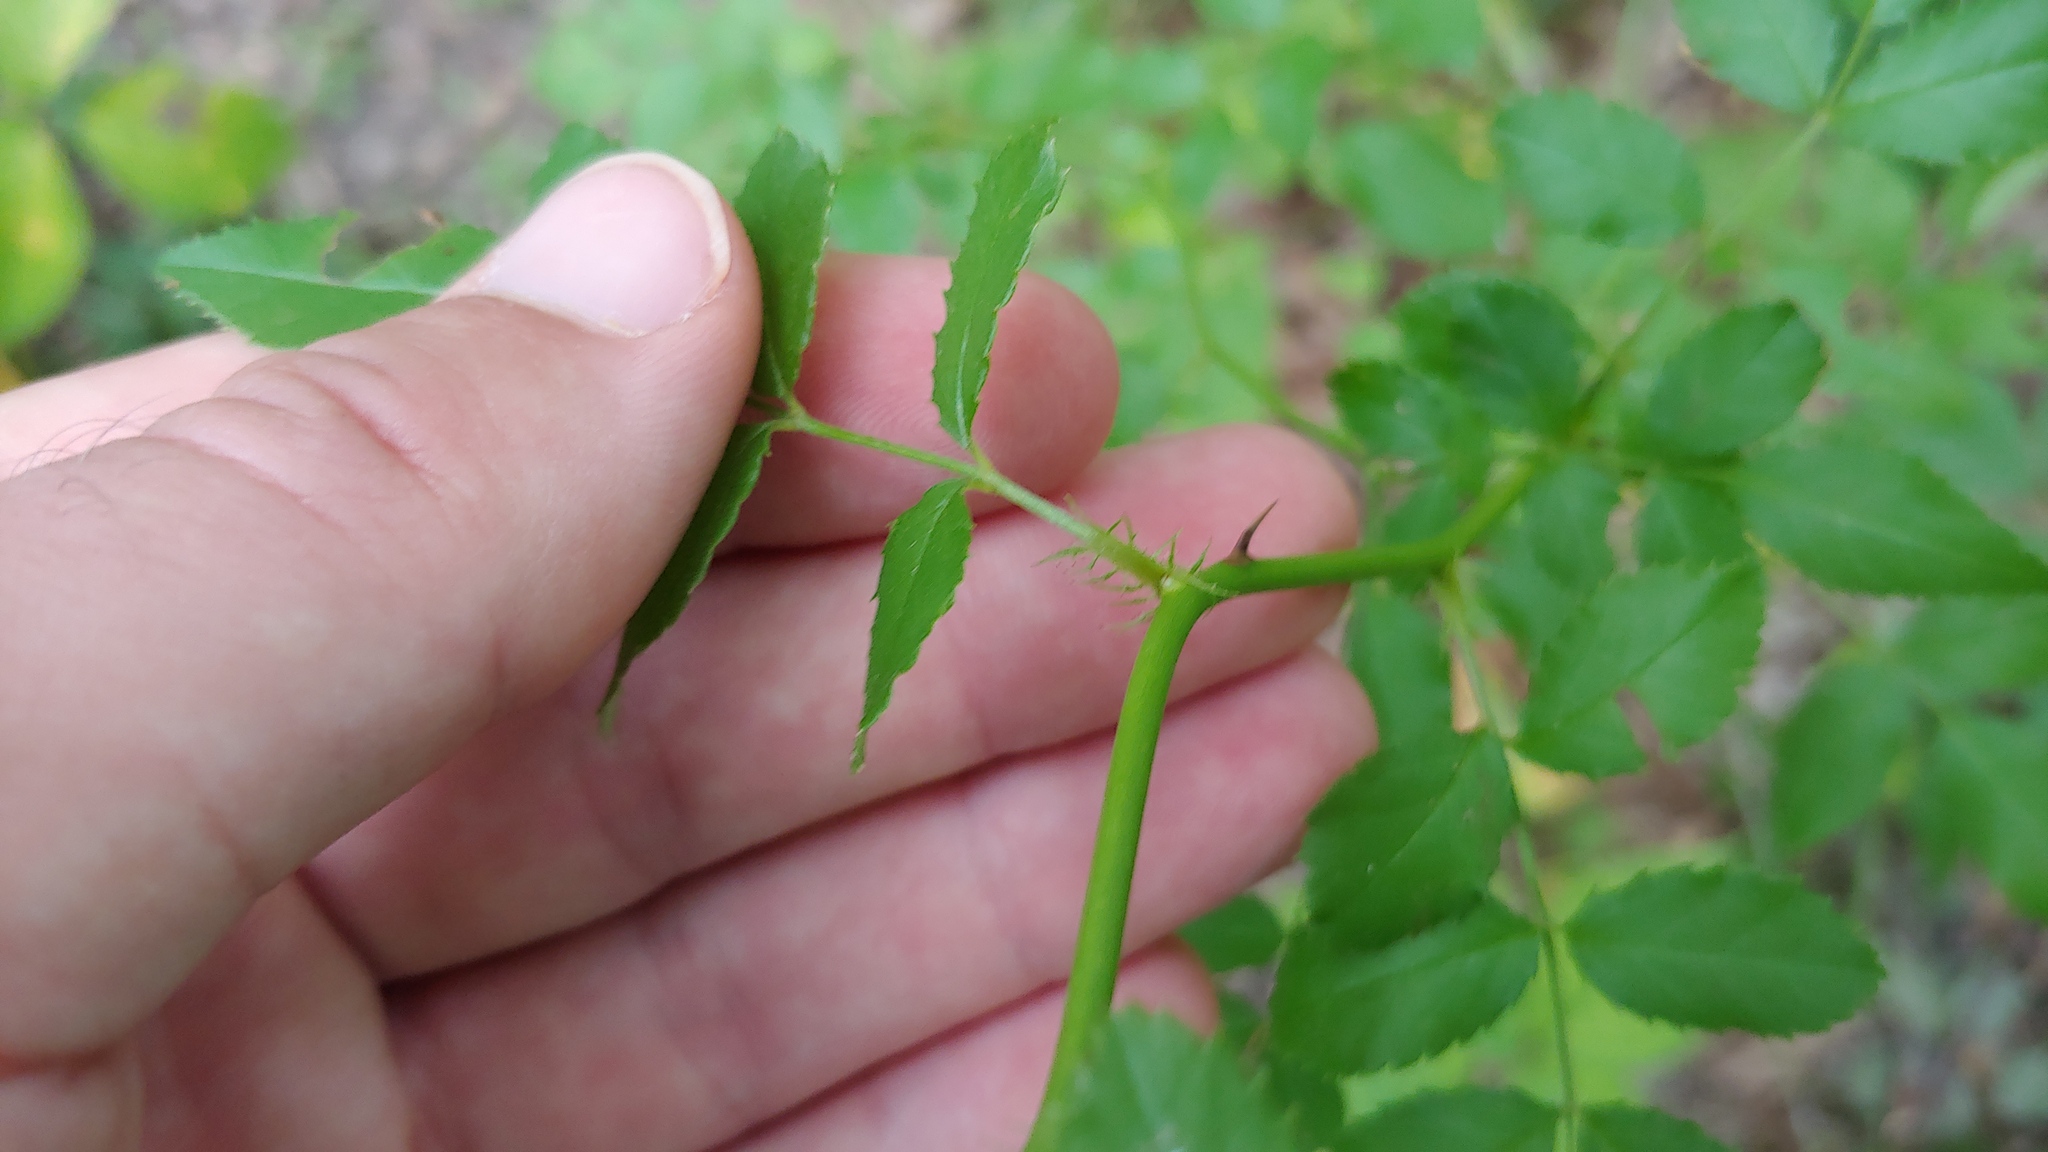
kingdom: Plantae
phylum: Tracheophyta
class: Magnoliopsida
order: Rosales
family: Rosaceae
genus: Rosa
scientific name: Rosa multiflora
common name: Multiflora rose
